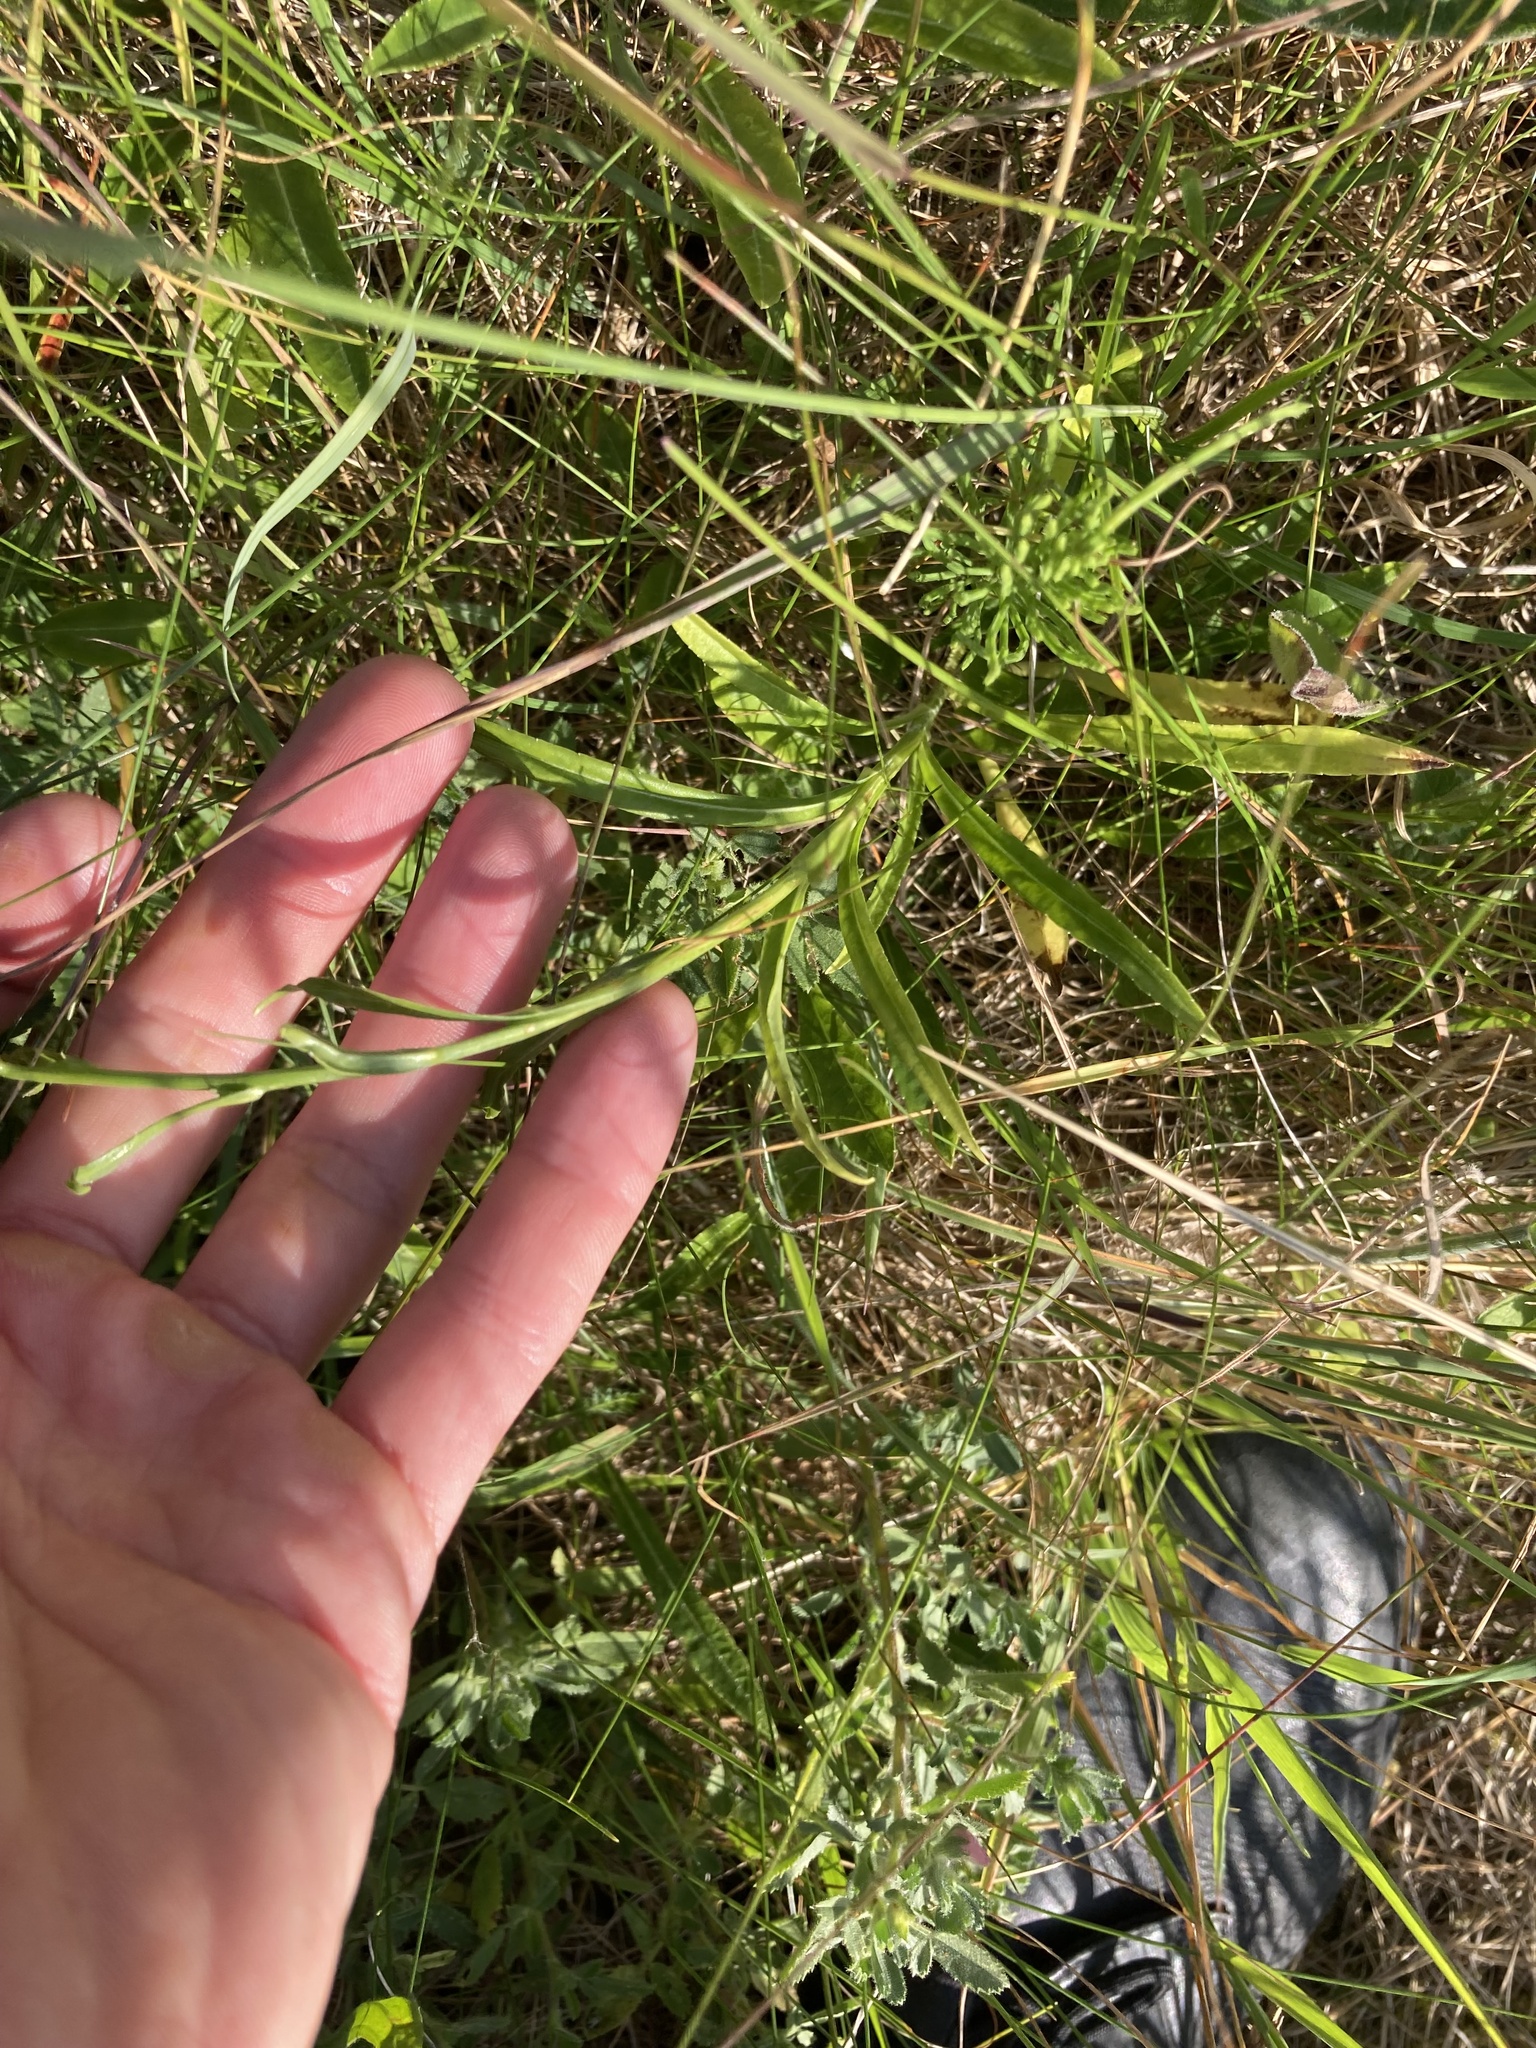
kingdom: Plantae
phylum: Tracheophyta
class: Magnoliopsida
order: Asterales
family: Campanulaceae
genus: Campanula
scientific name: Campanula persicifolia
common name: Peach-leaved bellflower
